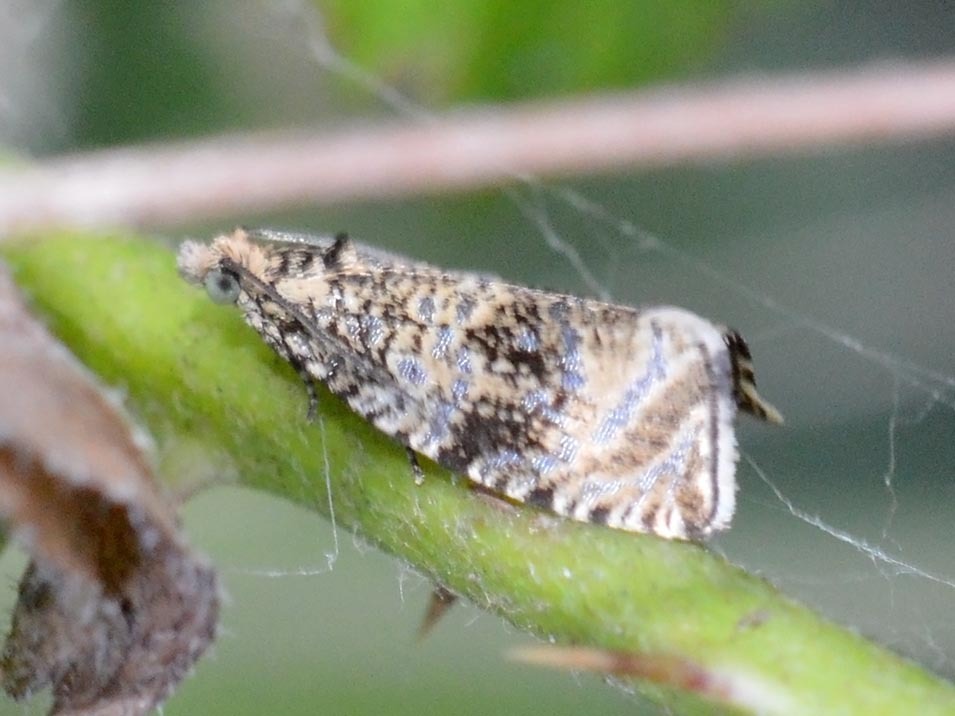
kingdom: Animalia
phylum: Arthropoda
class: Insecta
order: Lepidoptera
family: Tortricidae
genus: Syricoris
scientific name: Syricoris lacunana
